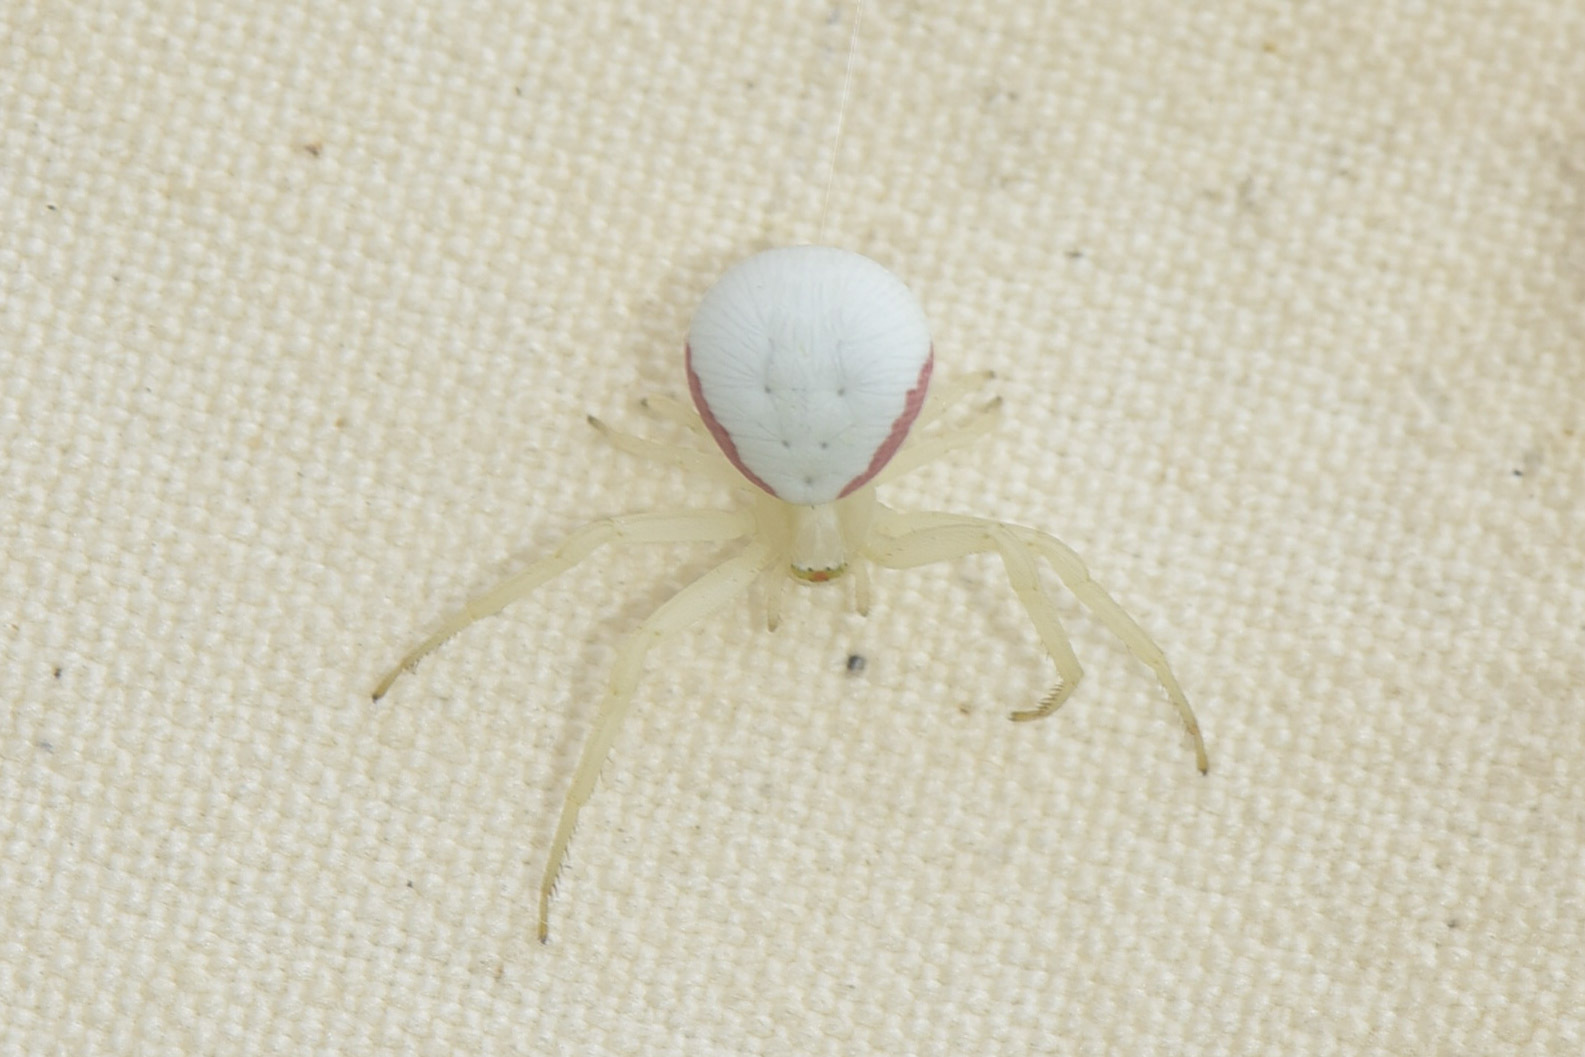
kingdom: Animalia
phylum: Arthropoda
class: Arachnida
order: Araneae
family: Thomisidae
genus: Misumena
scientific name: Misumena vatia
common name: Goldenrod crab spider
